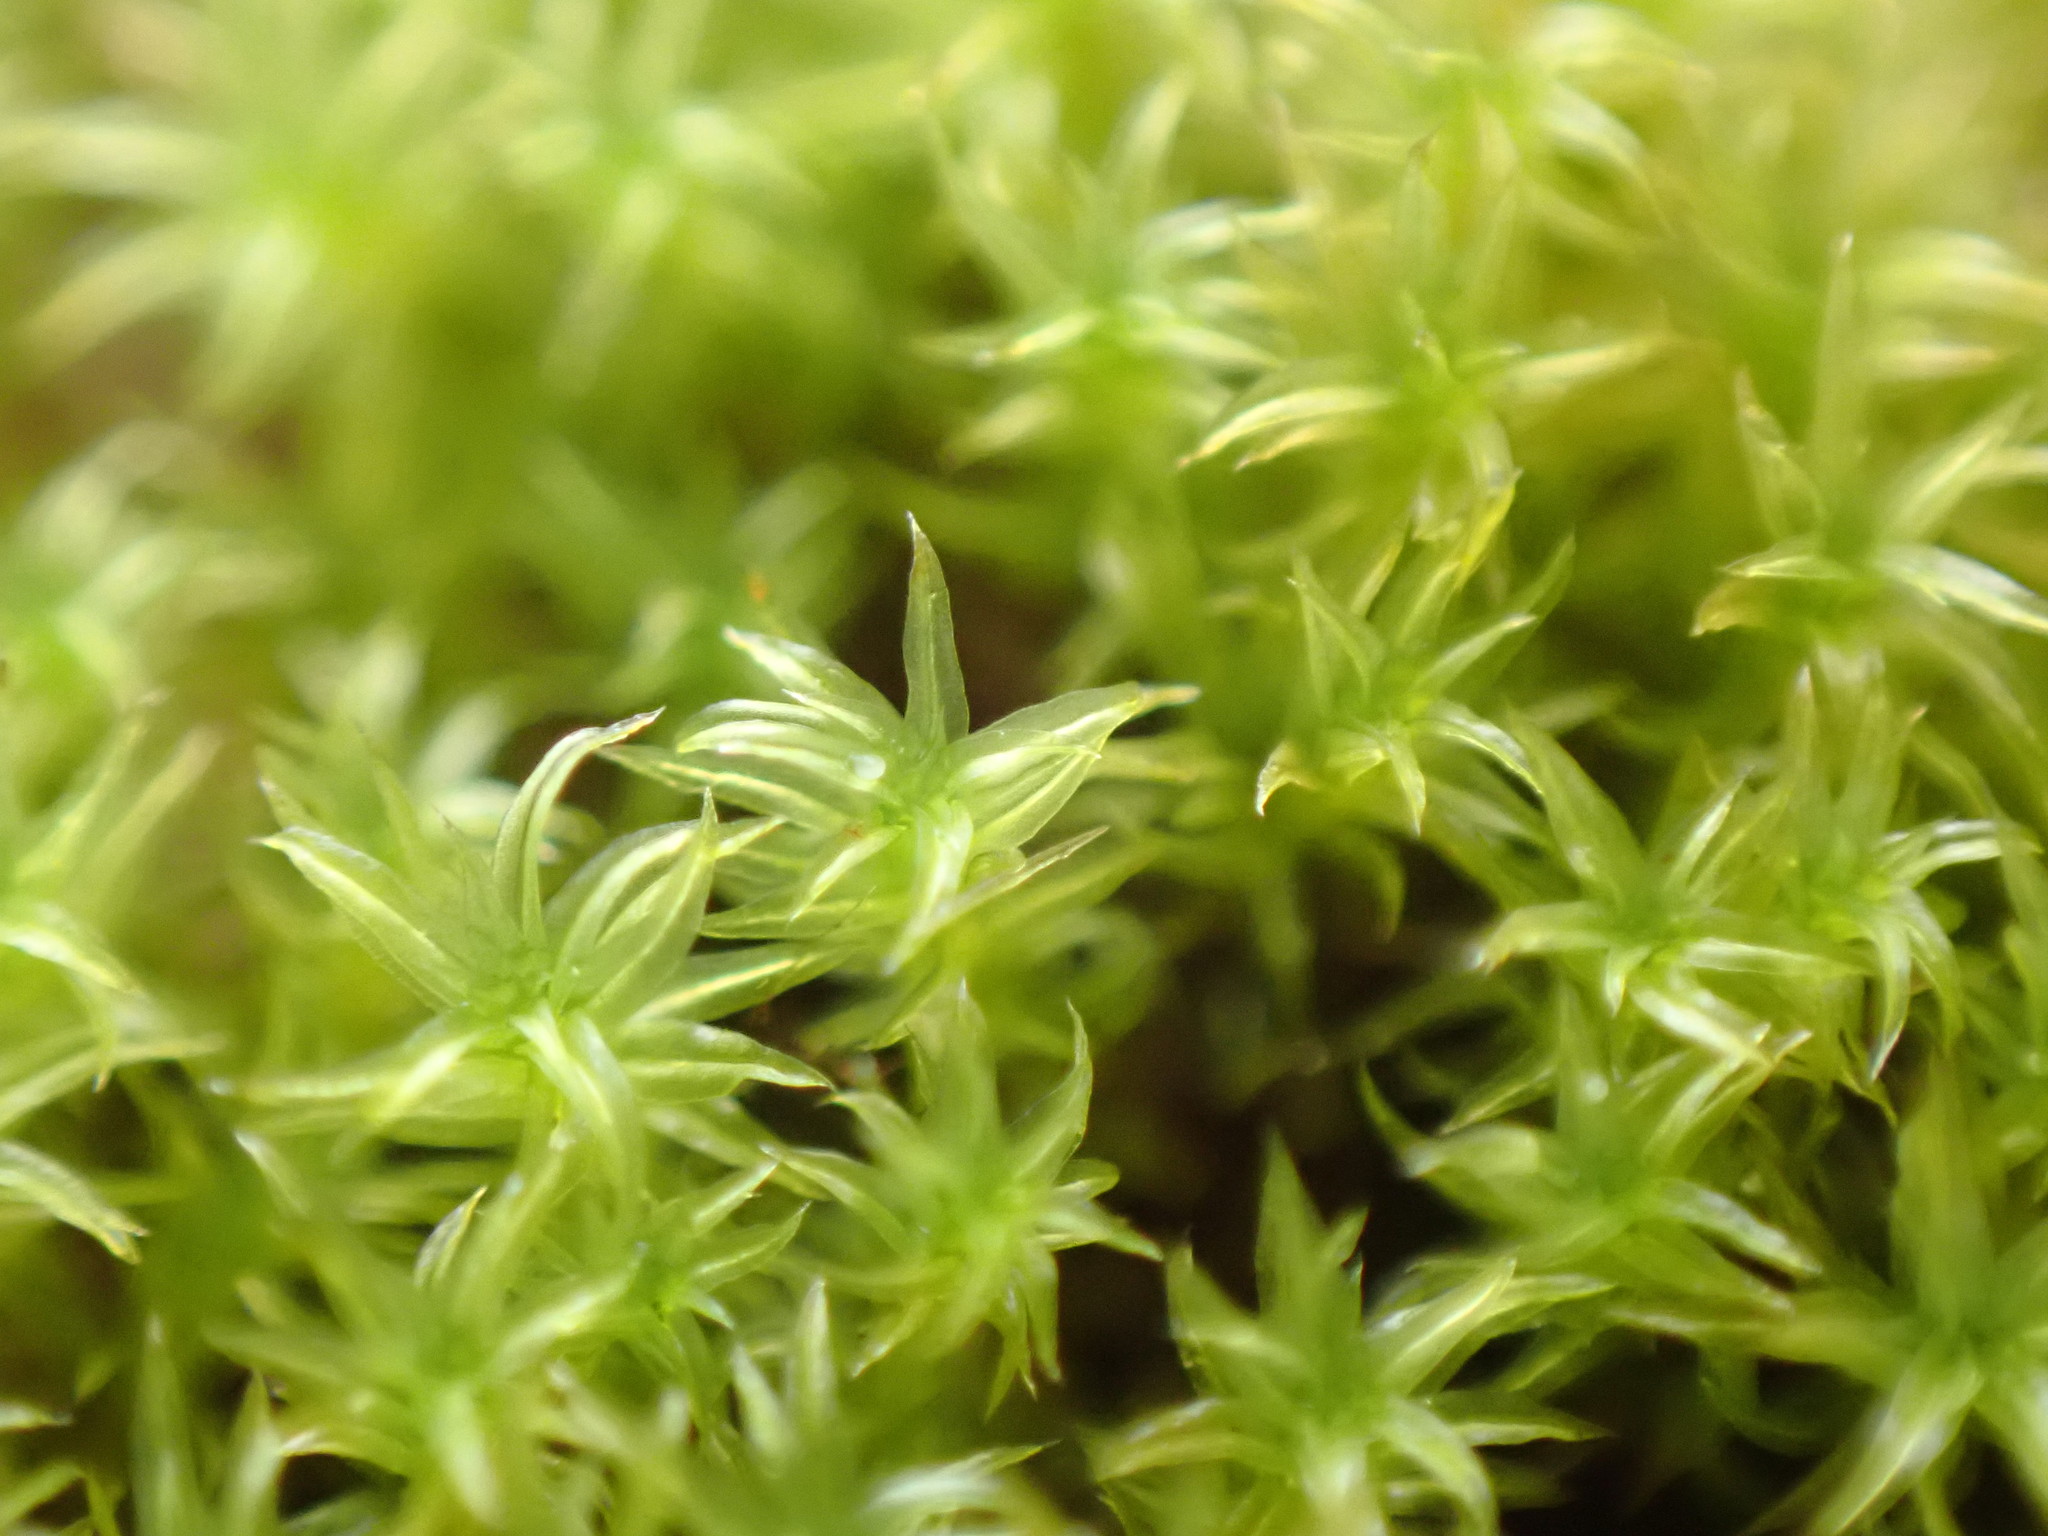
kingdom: Plantae
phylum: Bryophyta
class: Bryopsida
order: Orthotrichales
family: Orthotrichaceae
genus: Zygodon
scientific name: Zygodon rupestris
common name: Park yoke moss
